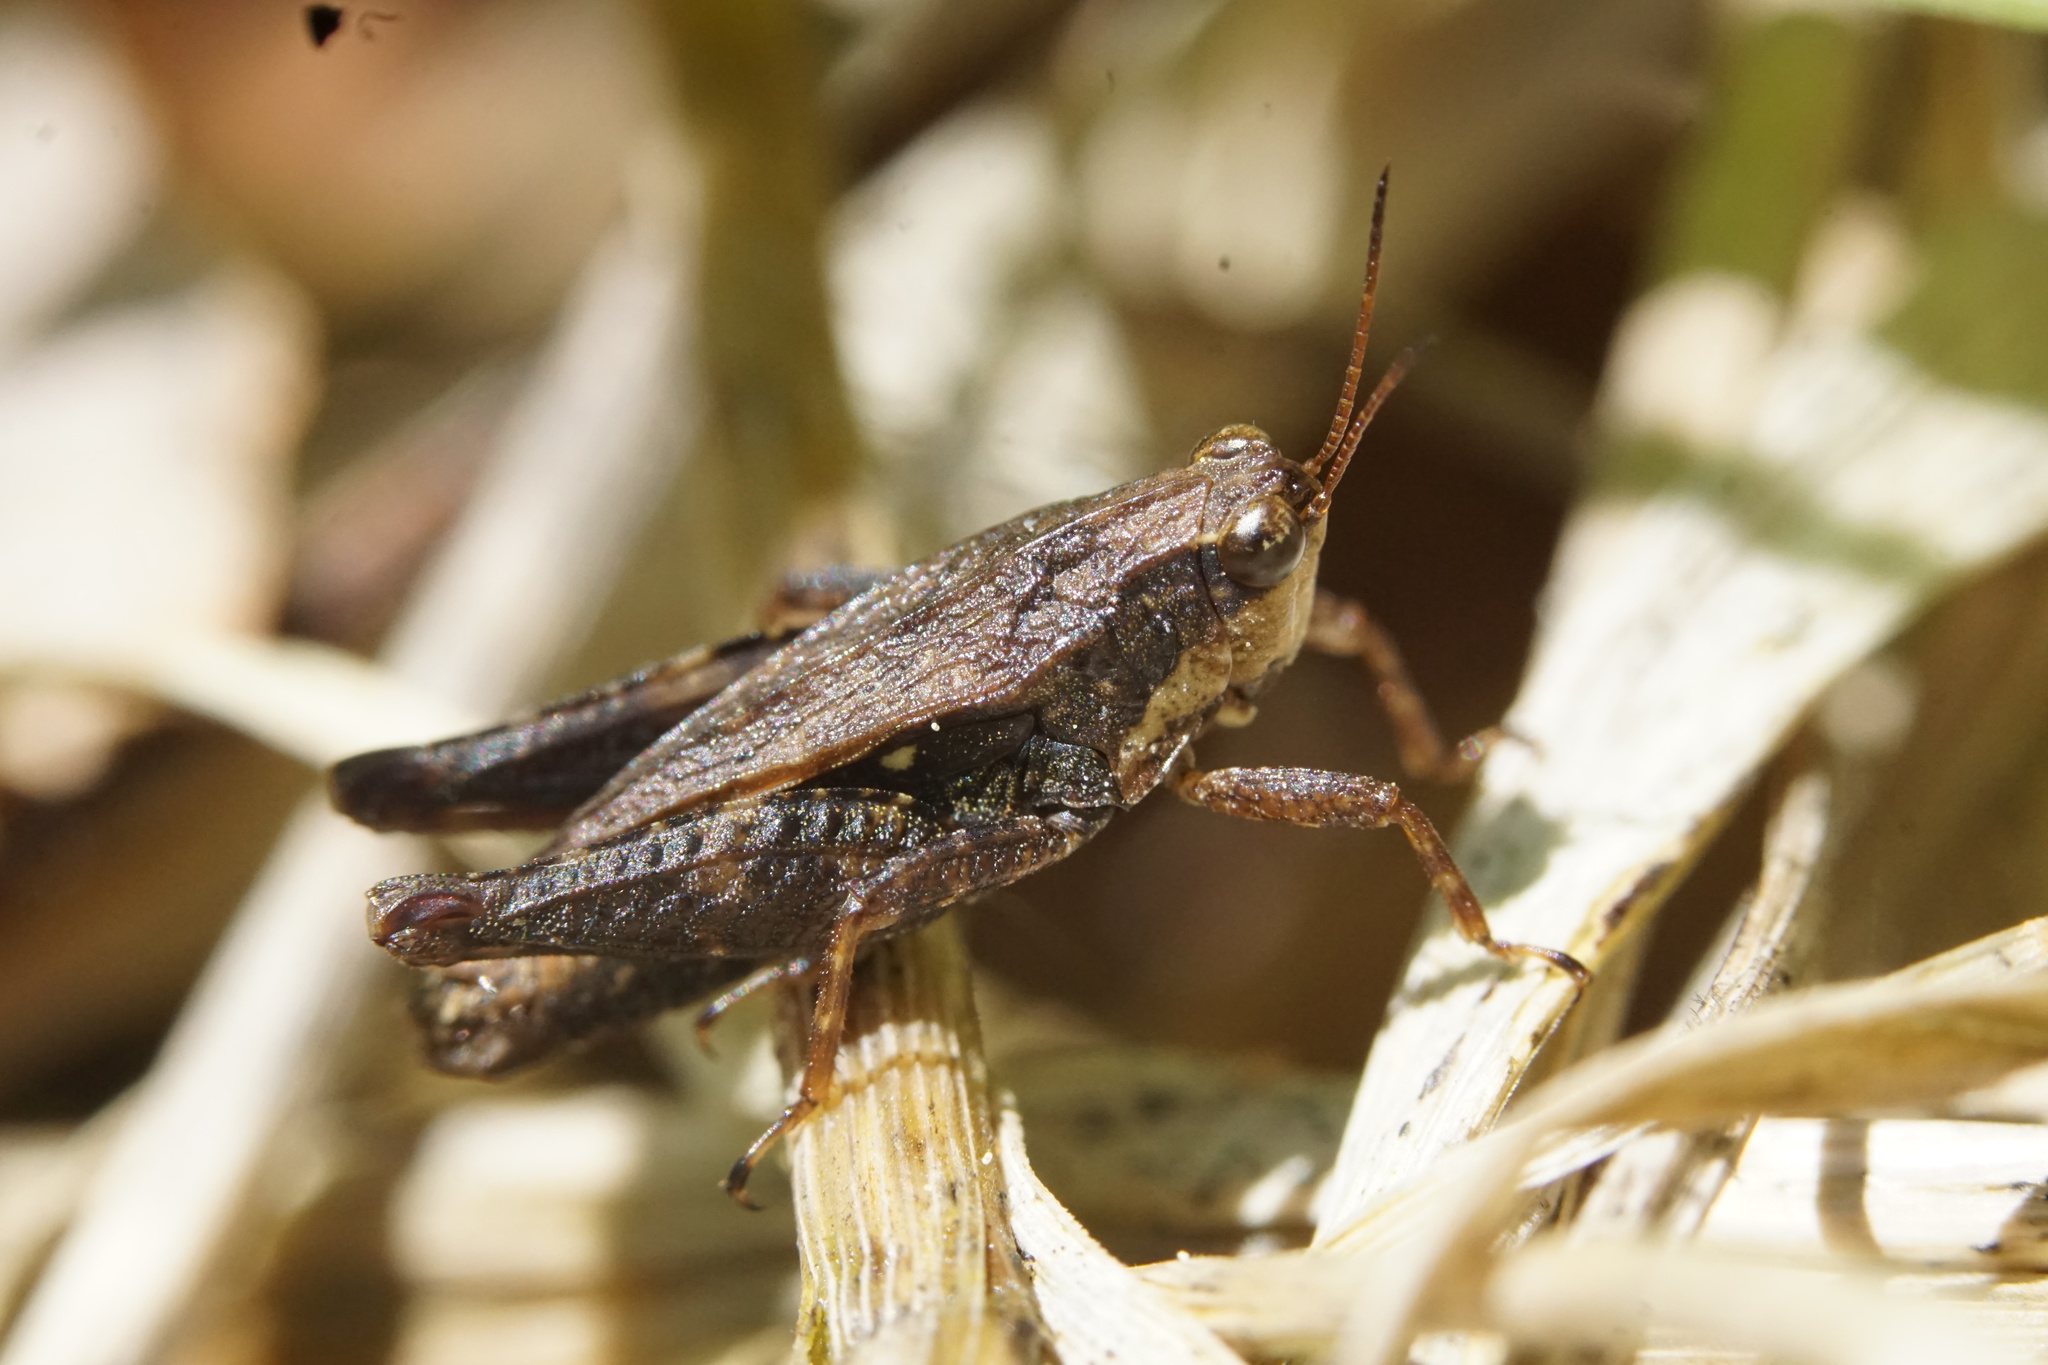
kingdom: Animalia
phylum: Arthropoda
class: Insecta
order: Orthoptera
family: Tetrigidae
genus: Tettigidea
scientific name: Tettigidea laterale
